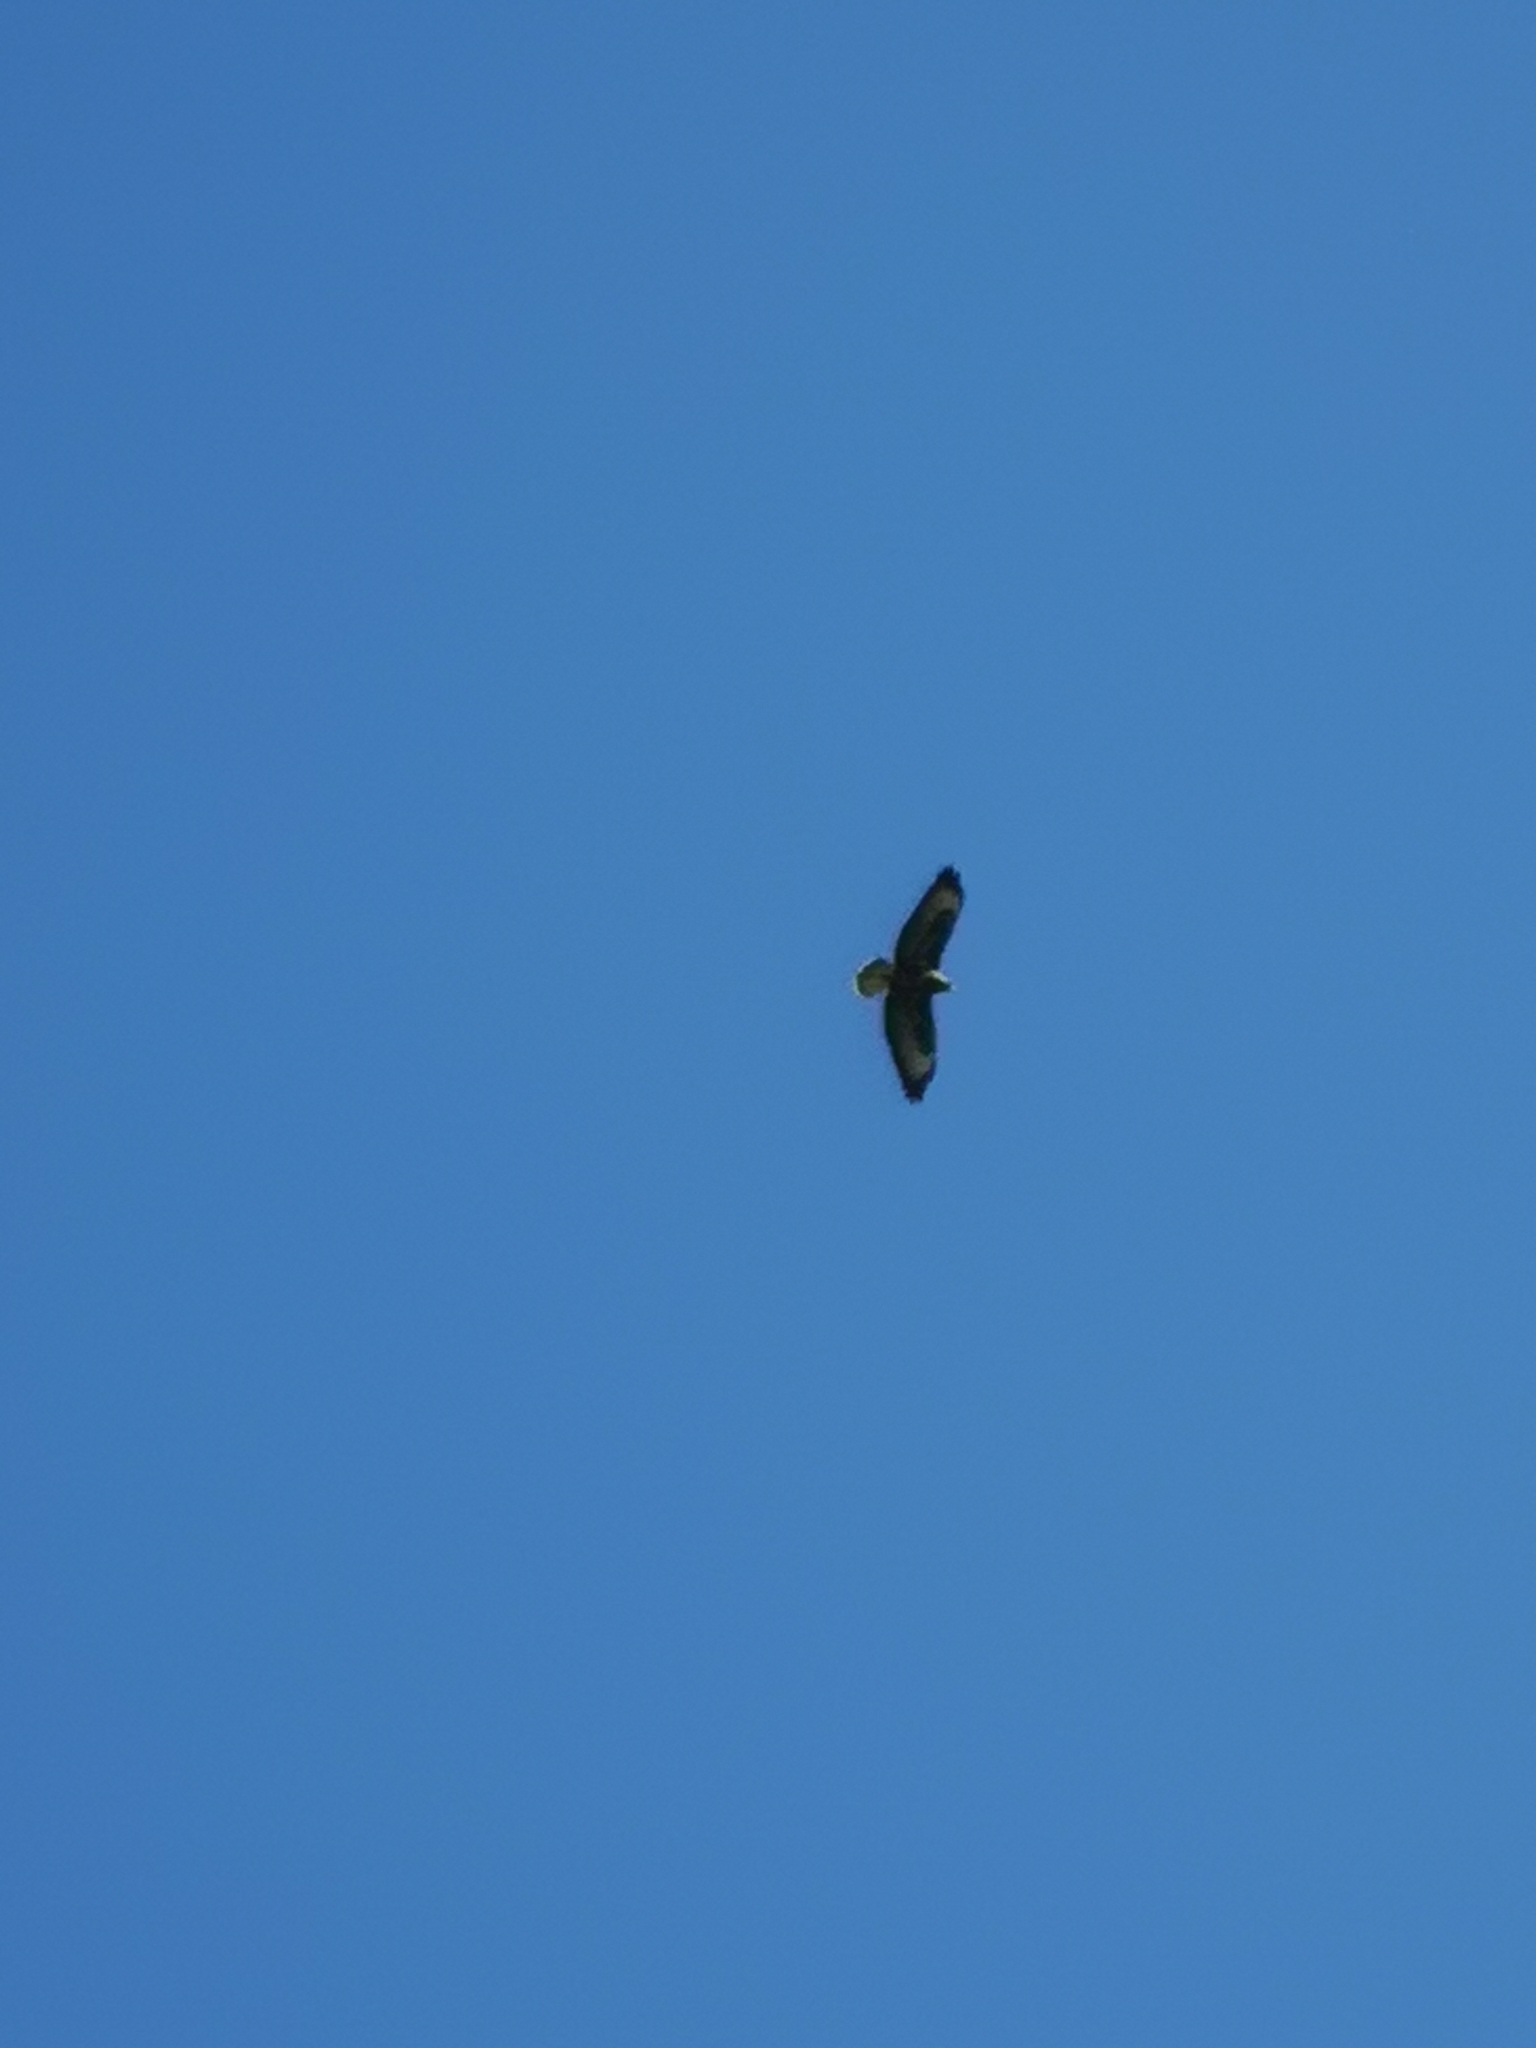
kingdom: Animalia
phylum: Chordata
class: Aves
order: Accipitriformes
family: Accipitridae
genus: Buteo
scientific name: Buteo buteo
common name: Common buzzard
